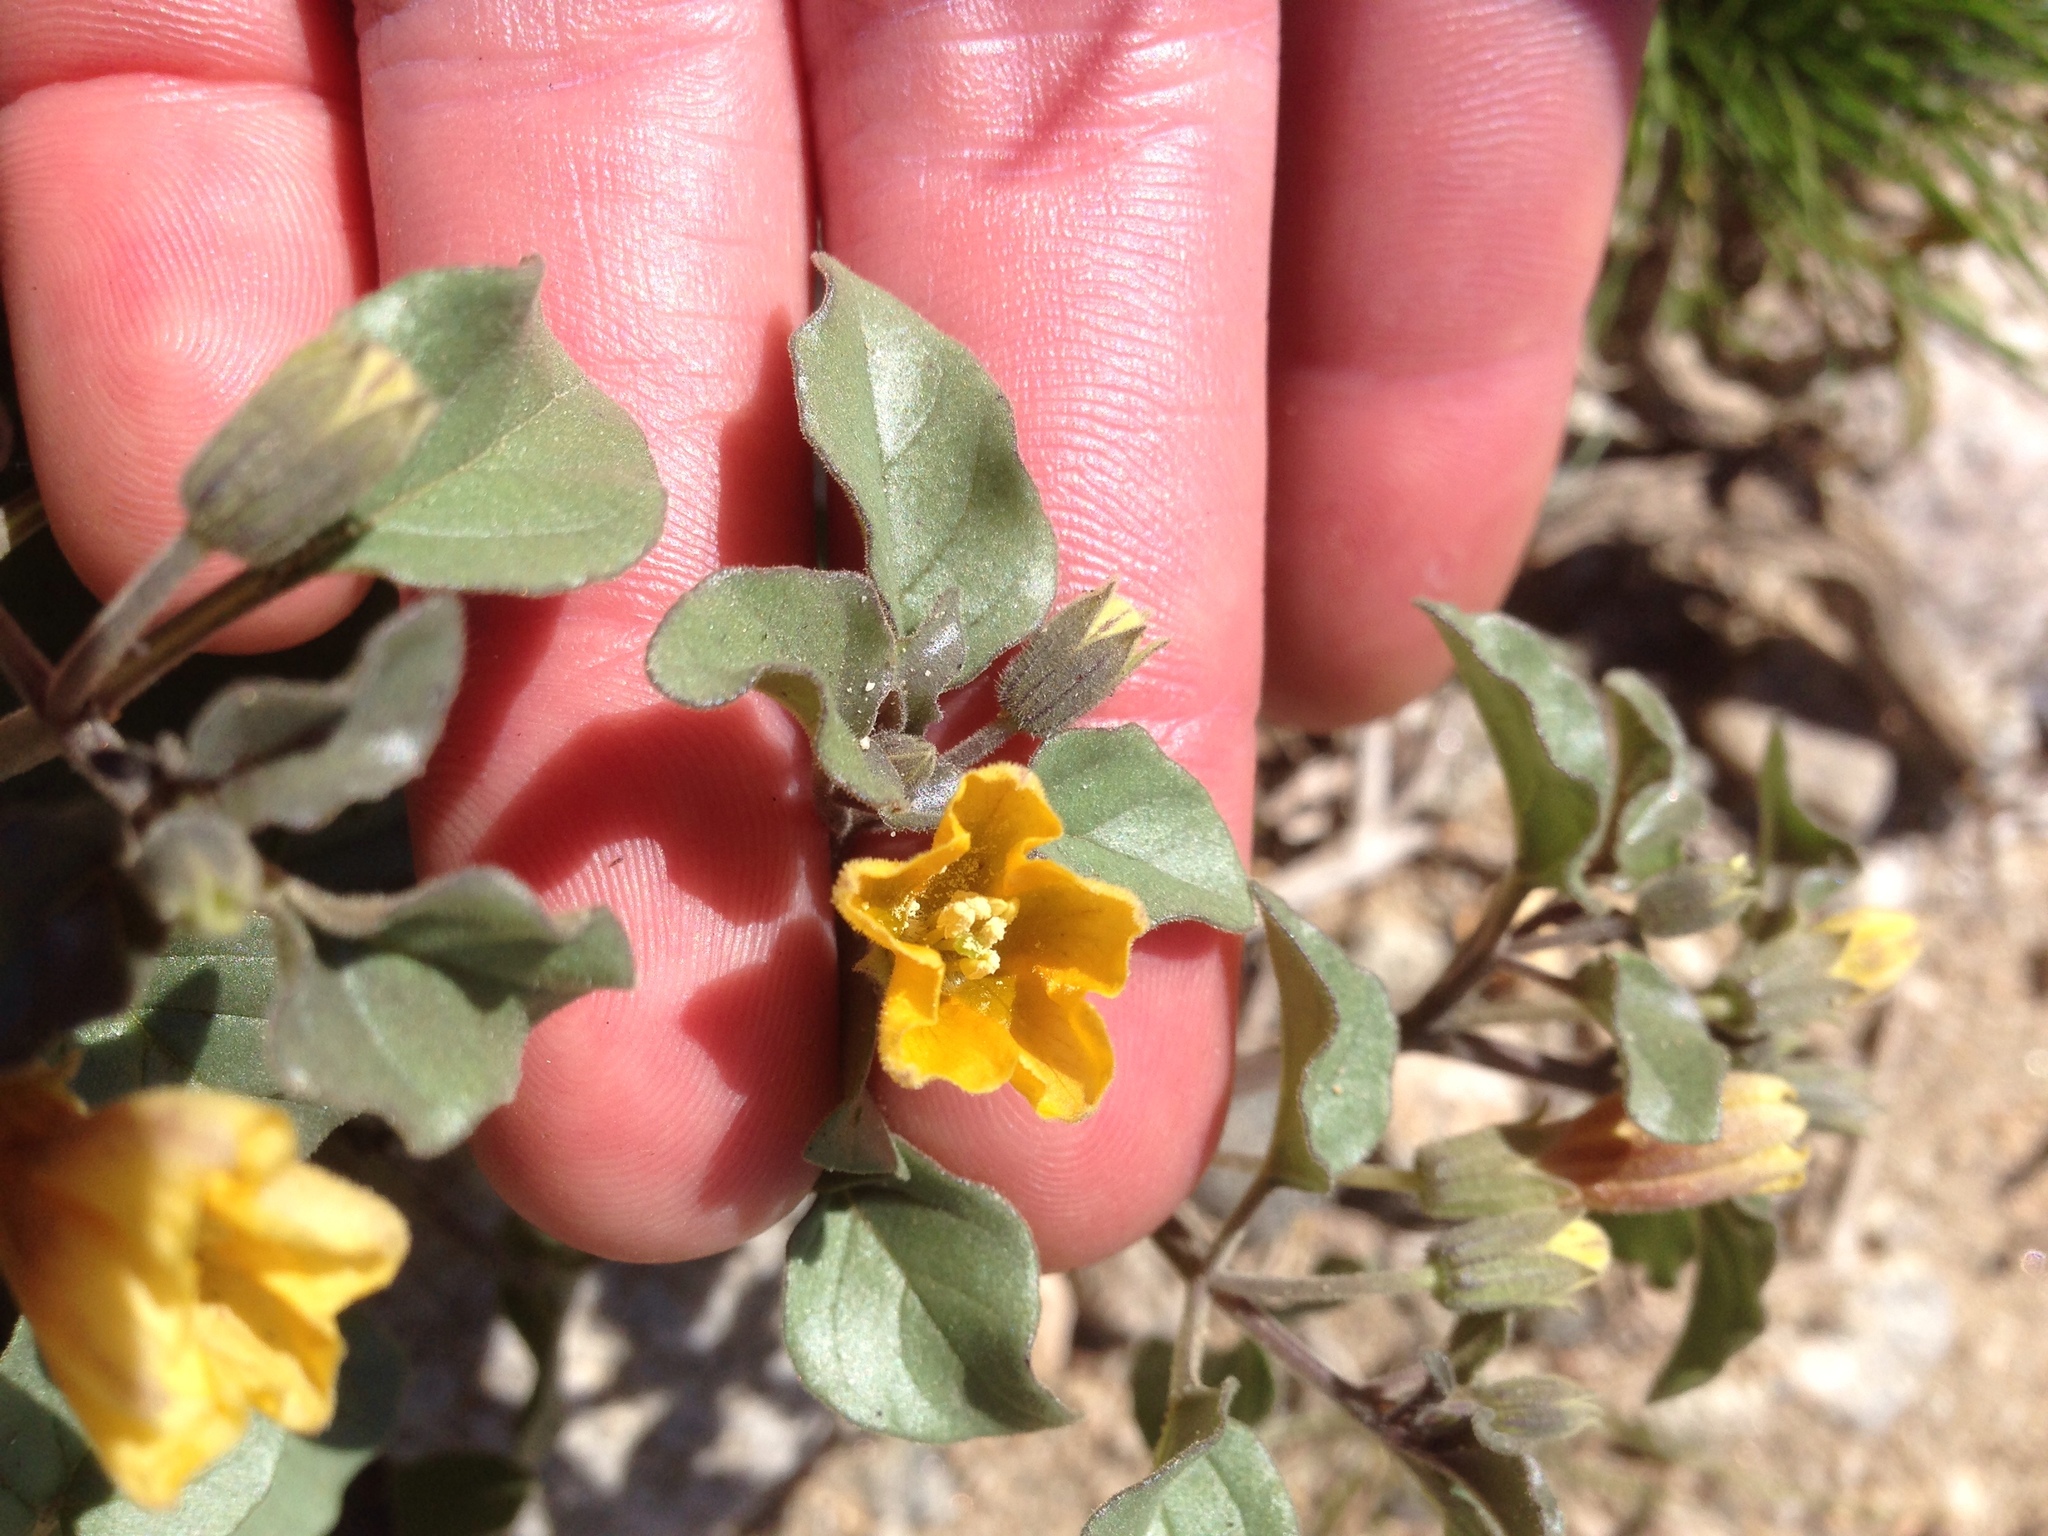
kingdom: Plantae
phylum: Tracheophyta
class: Magnoliopsida
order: Solanales
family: Solanaceae
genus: Physalis
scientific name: Physalis crassifolia
